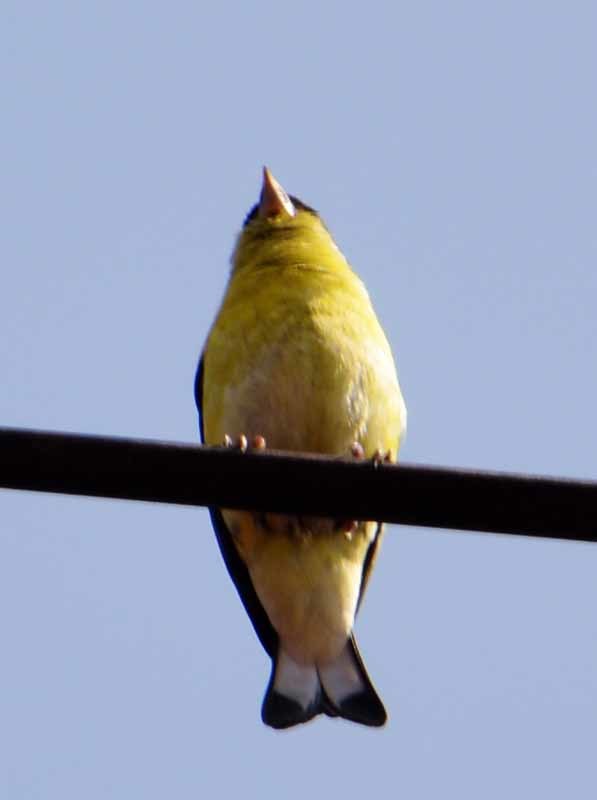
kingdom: Animalia
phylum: Chordata
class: Aves
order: Passeriformes
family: Fringillidae
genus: Spinus
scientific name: Spinus psaltria
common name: Lesser goldfinch
